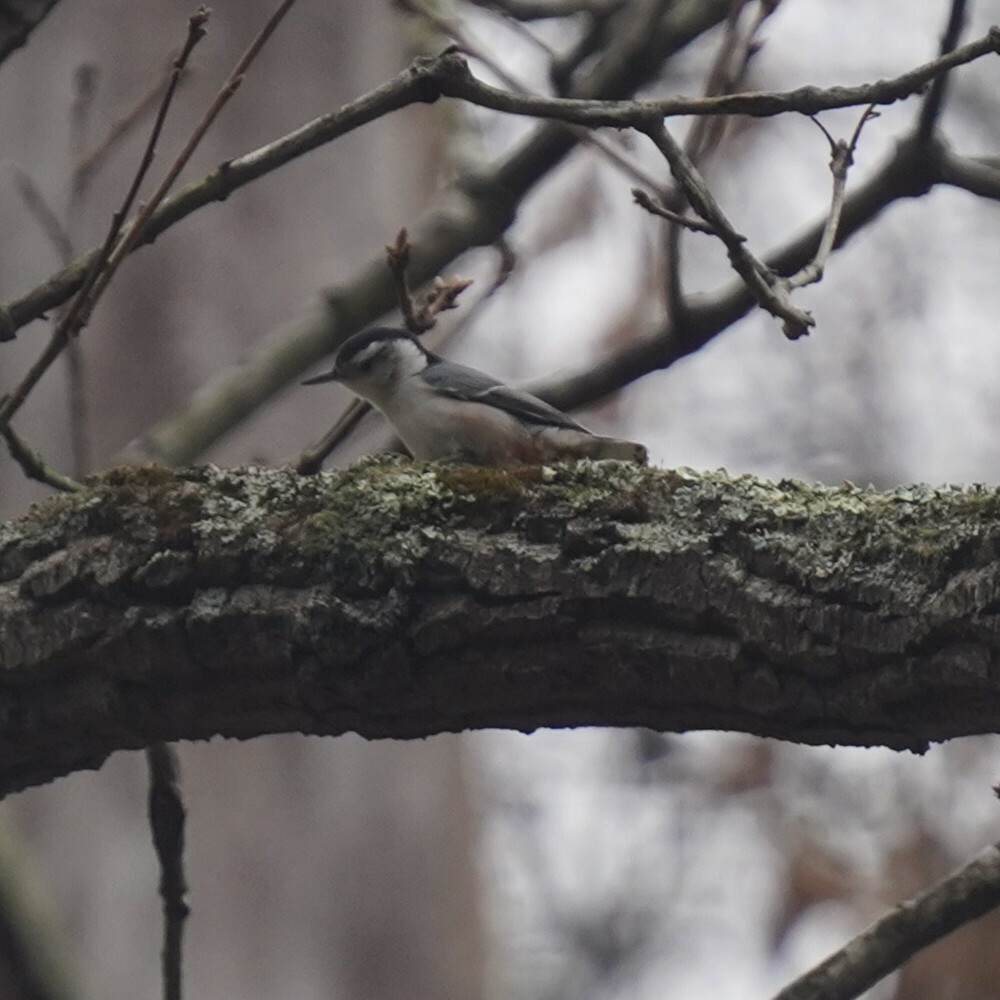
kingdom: Animalia
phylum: Chordata
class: Aves
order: Passeriformes
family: Sittidae
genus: Sitta
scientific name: Sitta carolinensis
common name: White-breasted nuthatch
